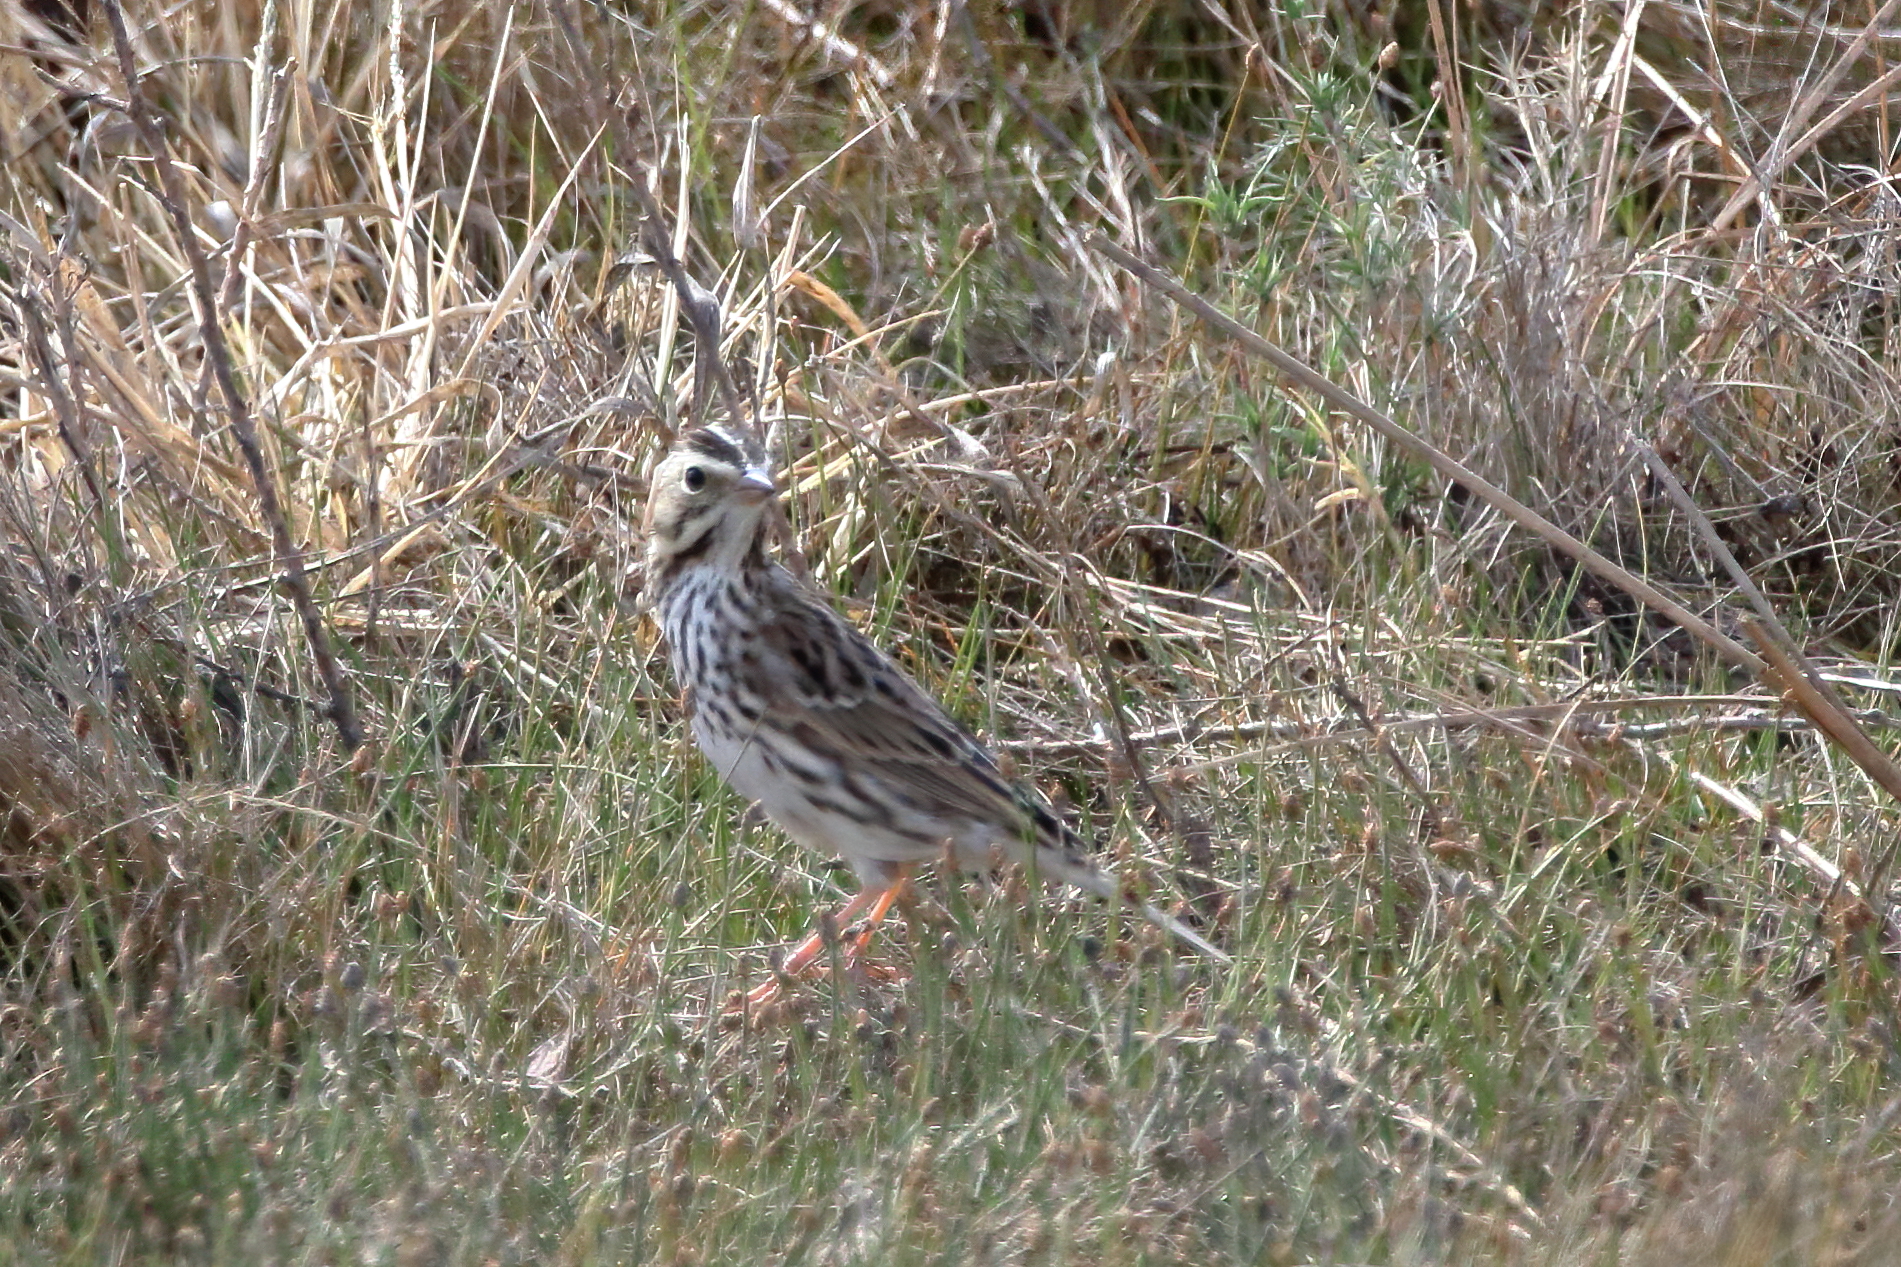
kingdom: Animalia
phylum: Chordata
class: Aves
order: Passeriformes
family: Passerellidae
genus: Passerculus
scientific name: Passerculus sandwichensis
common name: Savannah sparrow
